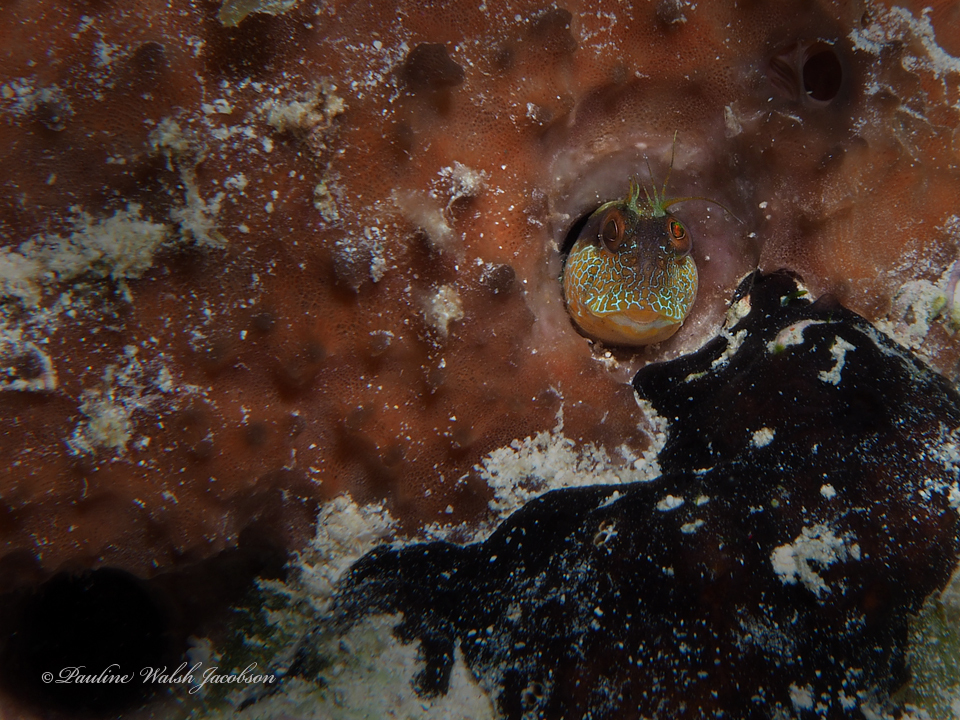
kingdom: Animalia
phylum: Chordata
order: Perciformes
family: Blenniidae
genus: Parablennius
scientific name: Parablennius marmoreus
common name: Seaweed blenny
